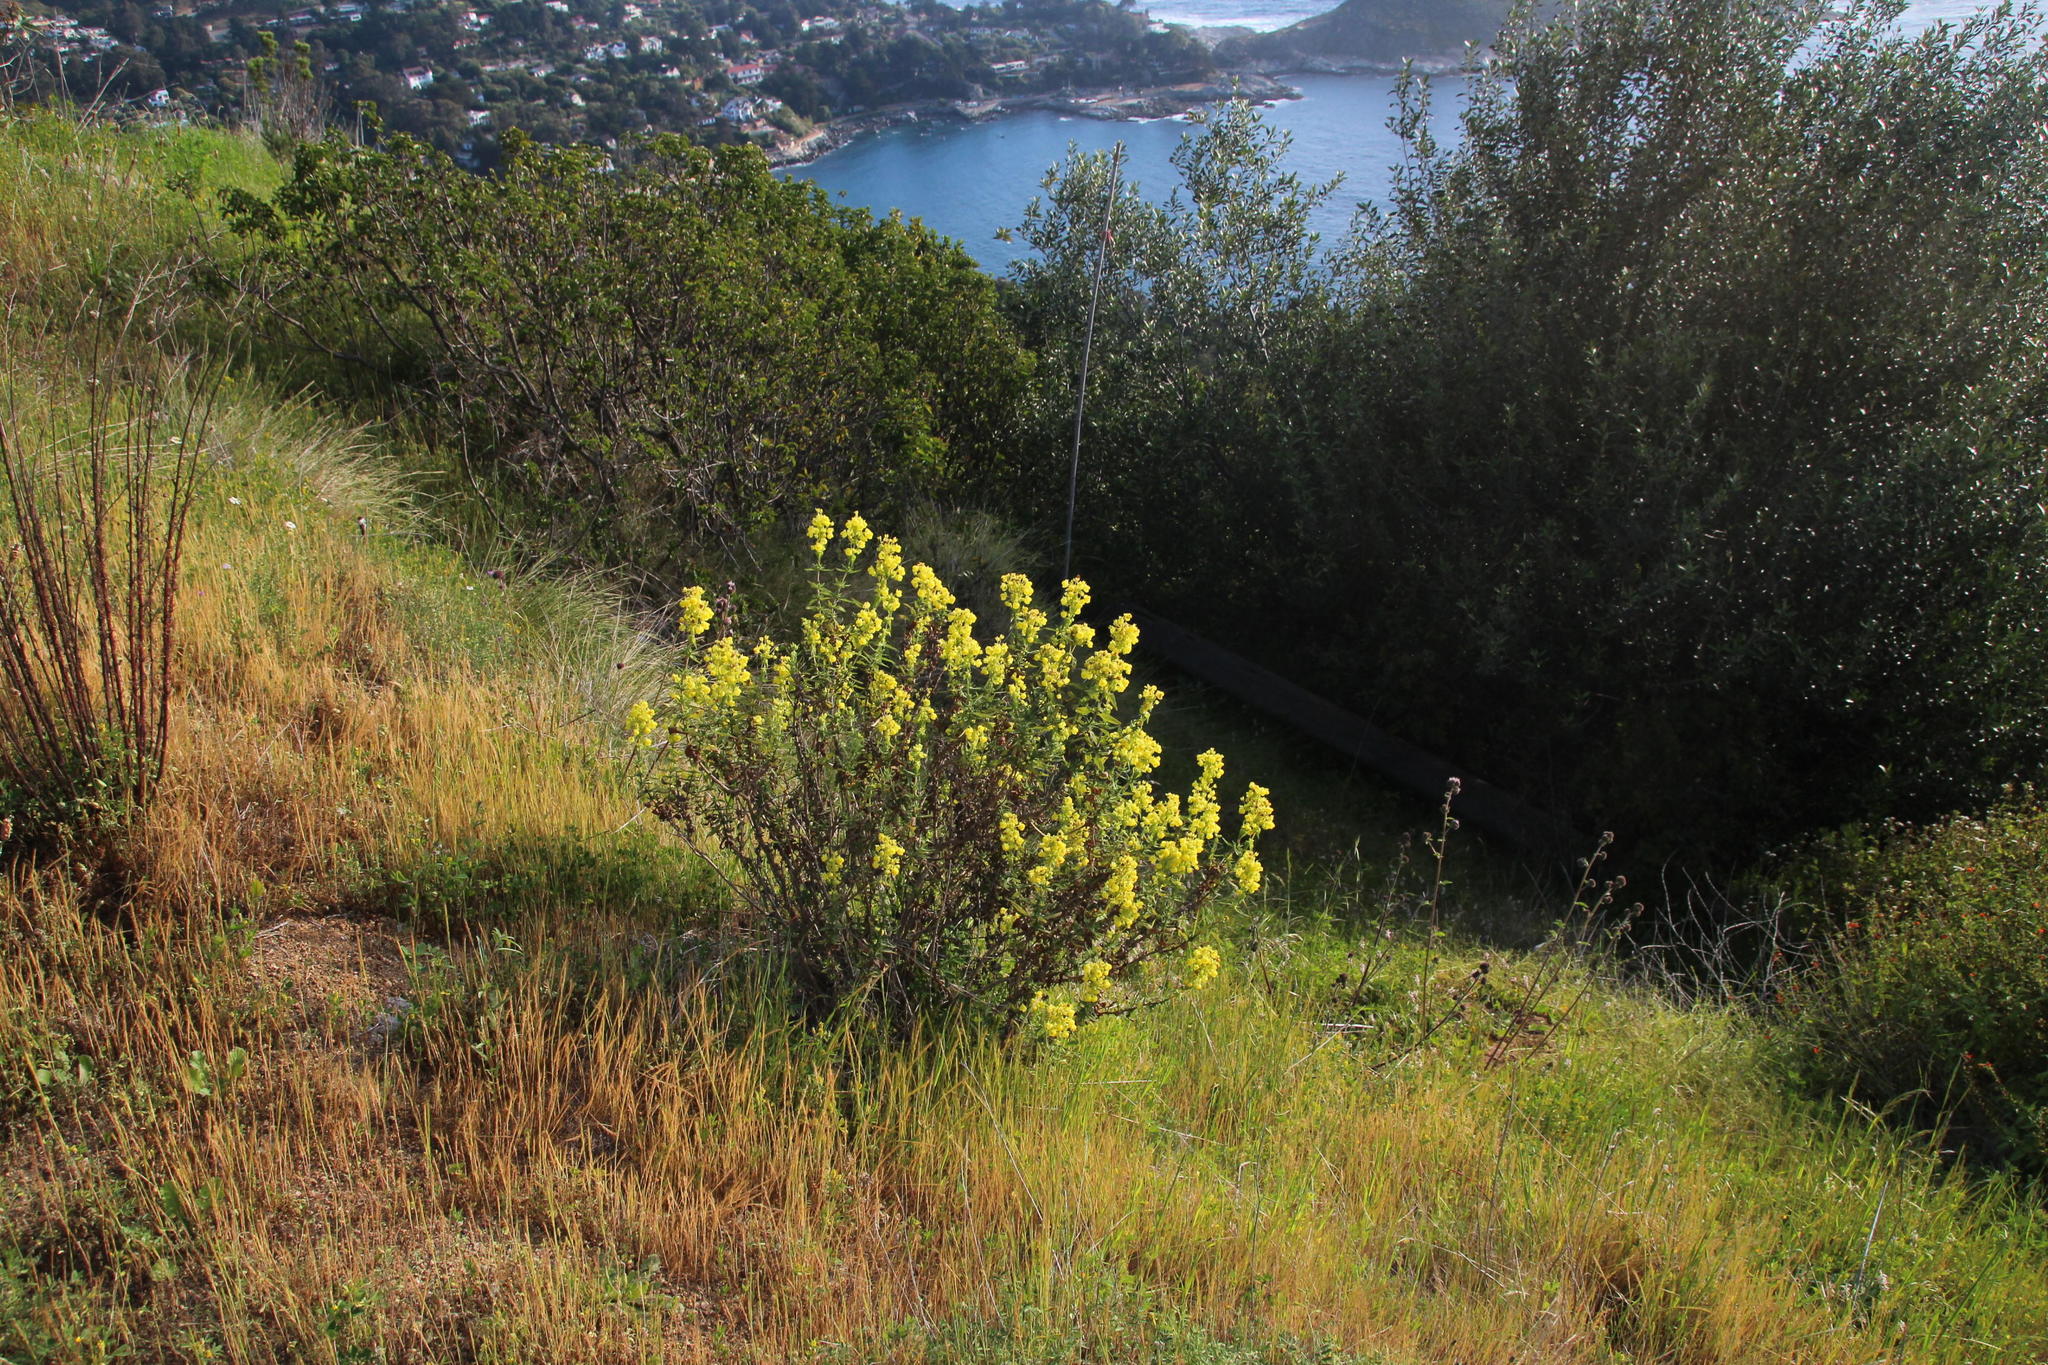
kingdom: Plantae
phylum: Tracheophyta
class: Magnoliopsida
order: Lamiales
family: Calceolariaceae
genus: Calceolaria
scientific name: Calceolaria morisii
